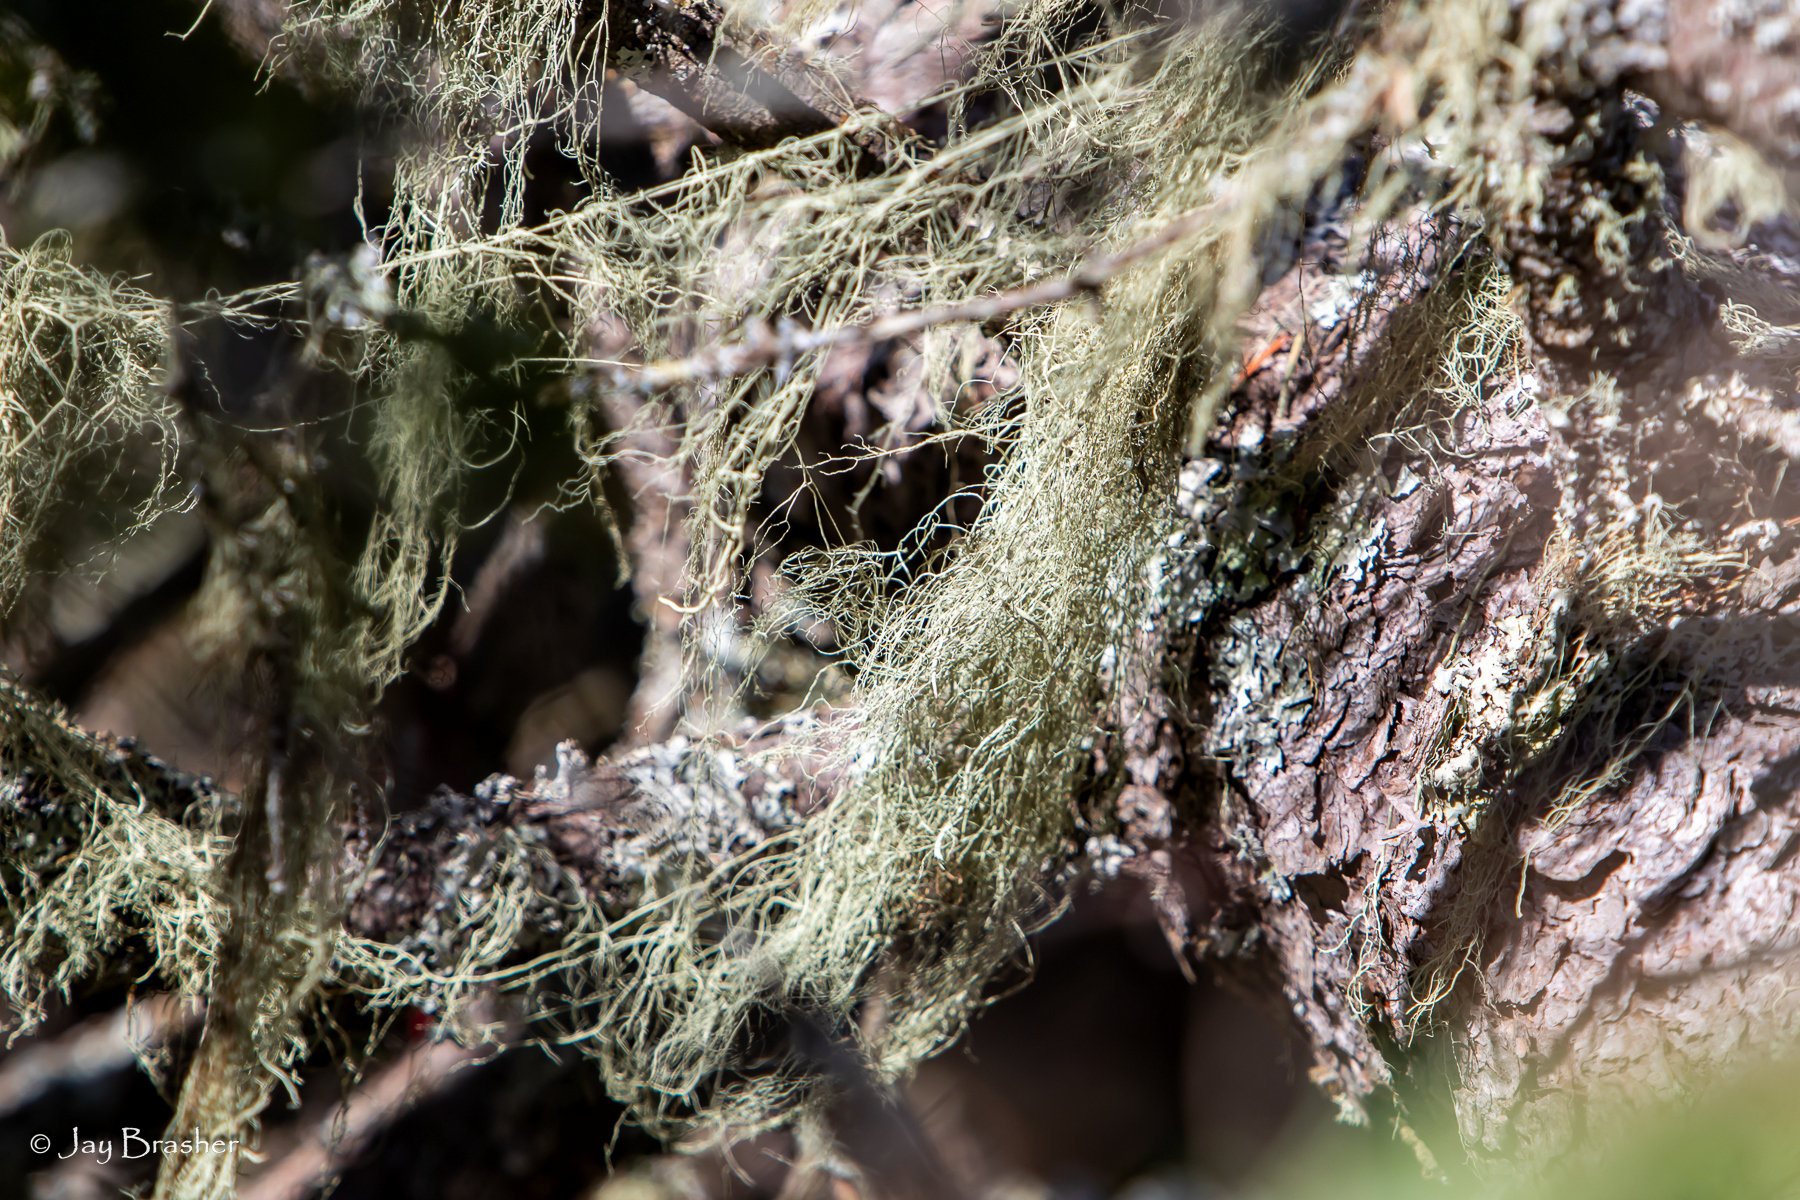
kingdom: Fungi
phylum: Ascomycota
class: Lecanoromycetes
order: Lecanorales
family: Parmeliaceae
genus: Usnea
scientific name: Usnea cavernosa
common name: Pitted beard lichen
